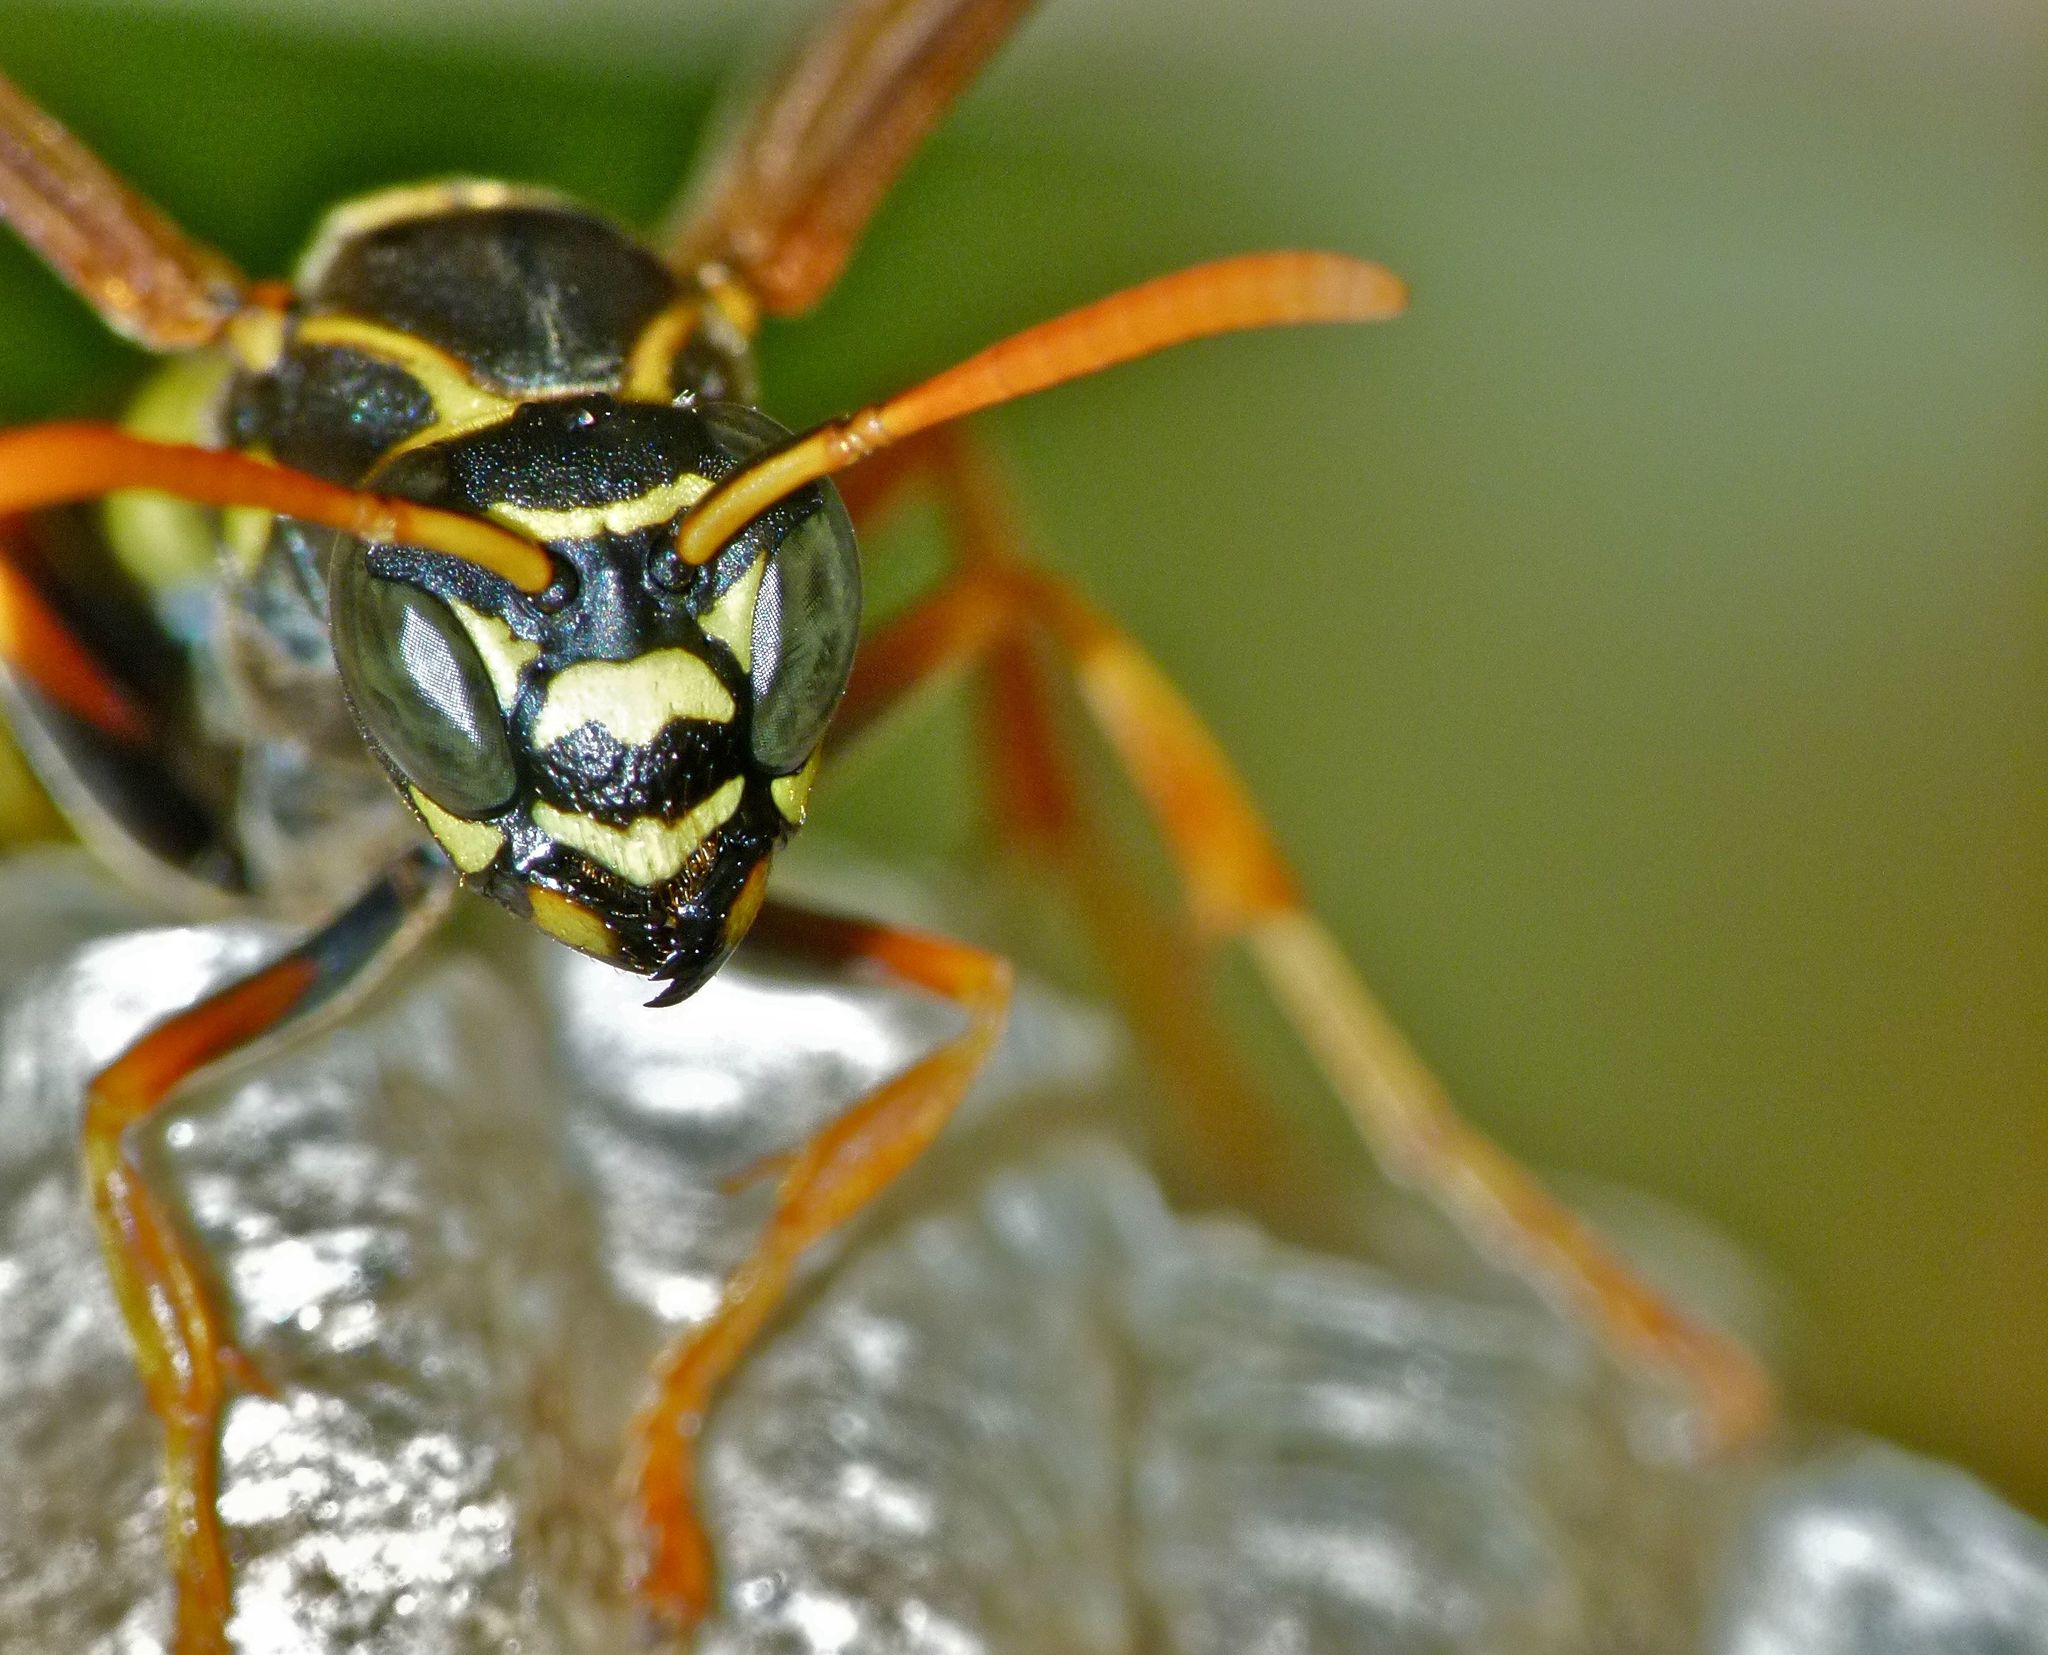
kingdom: Animalia
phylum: Arthropoda
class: Insecta
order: Hymenoptera
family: Eumenidae
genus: Polistes
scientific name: Polistes chinensis
